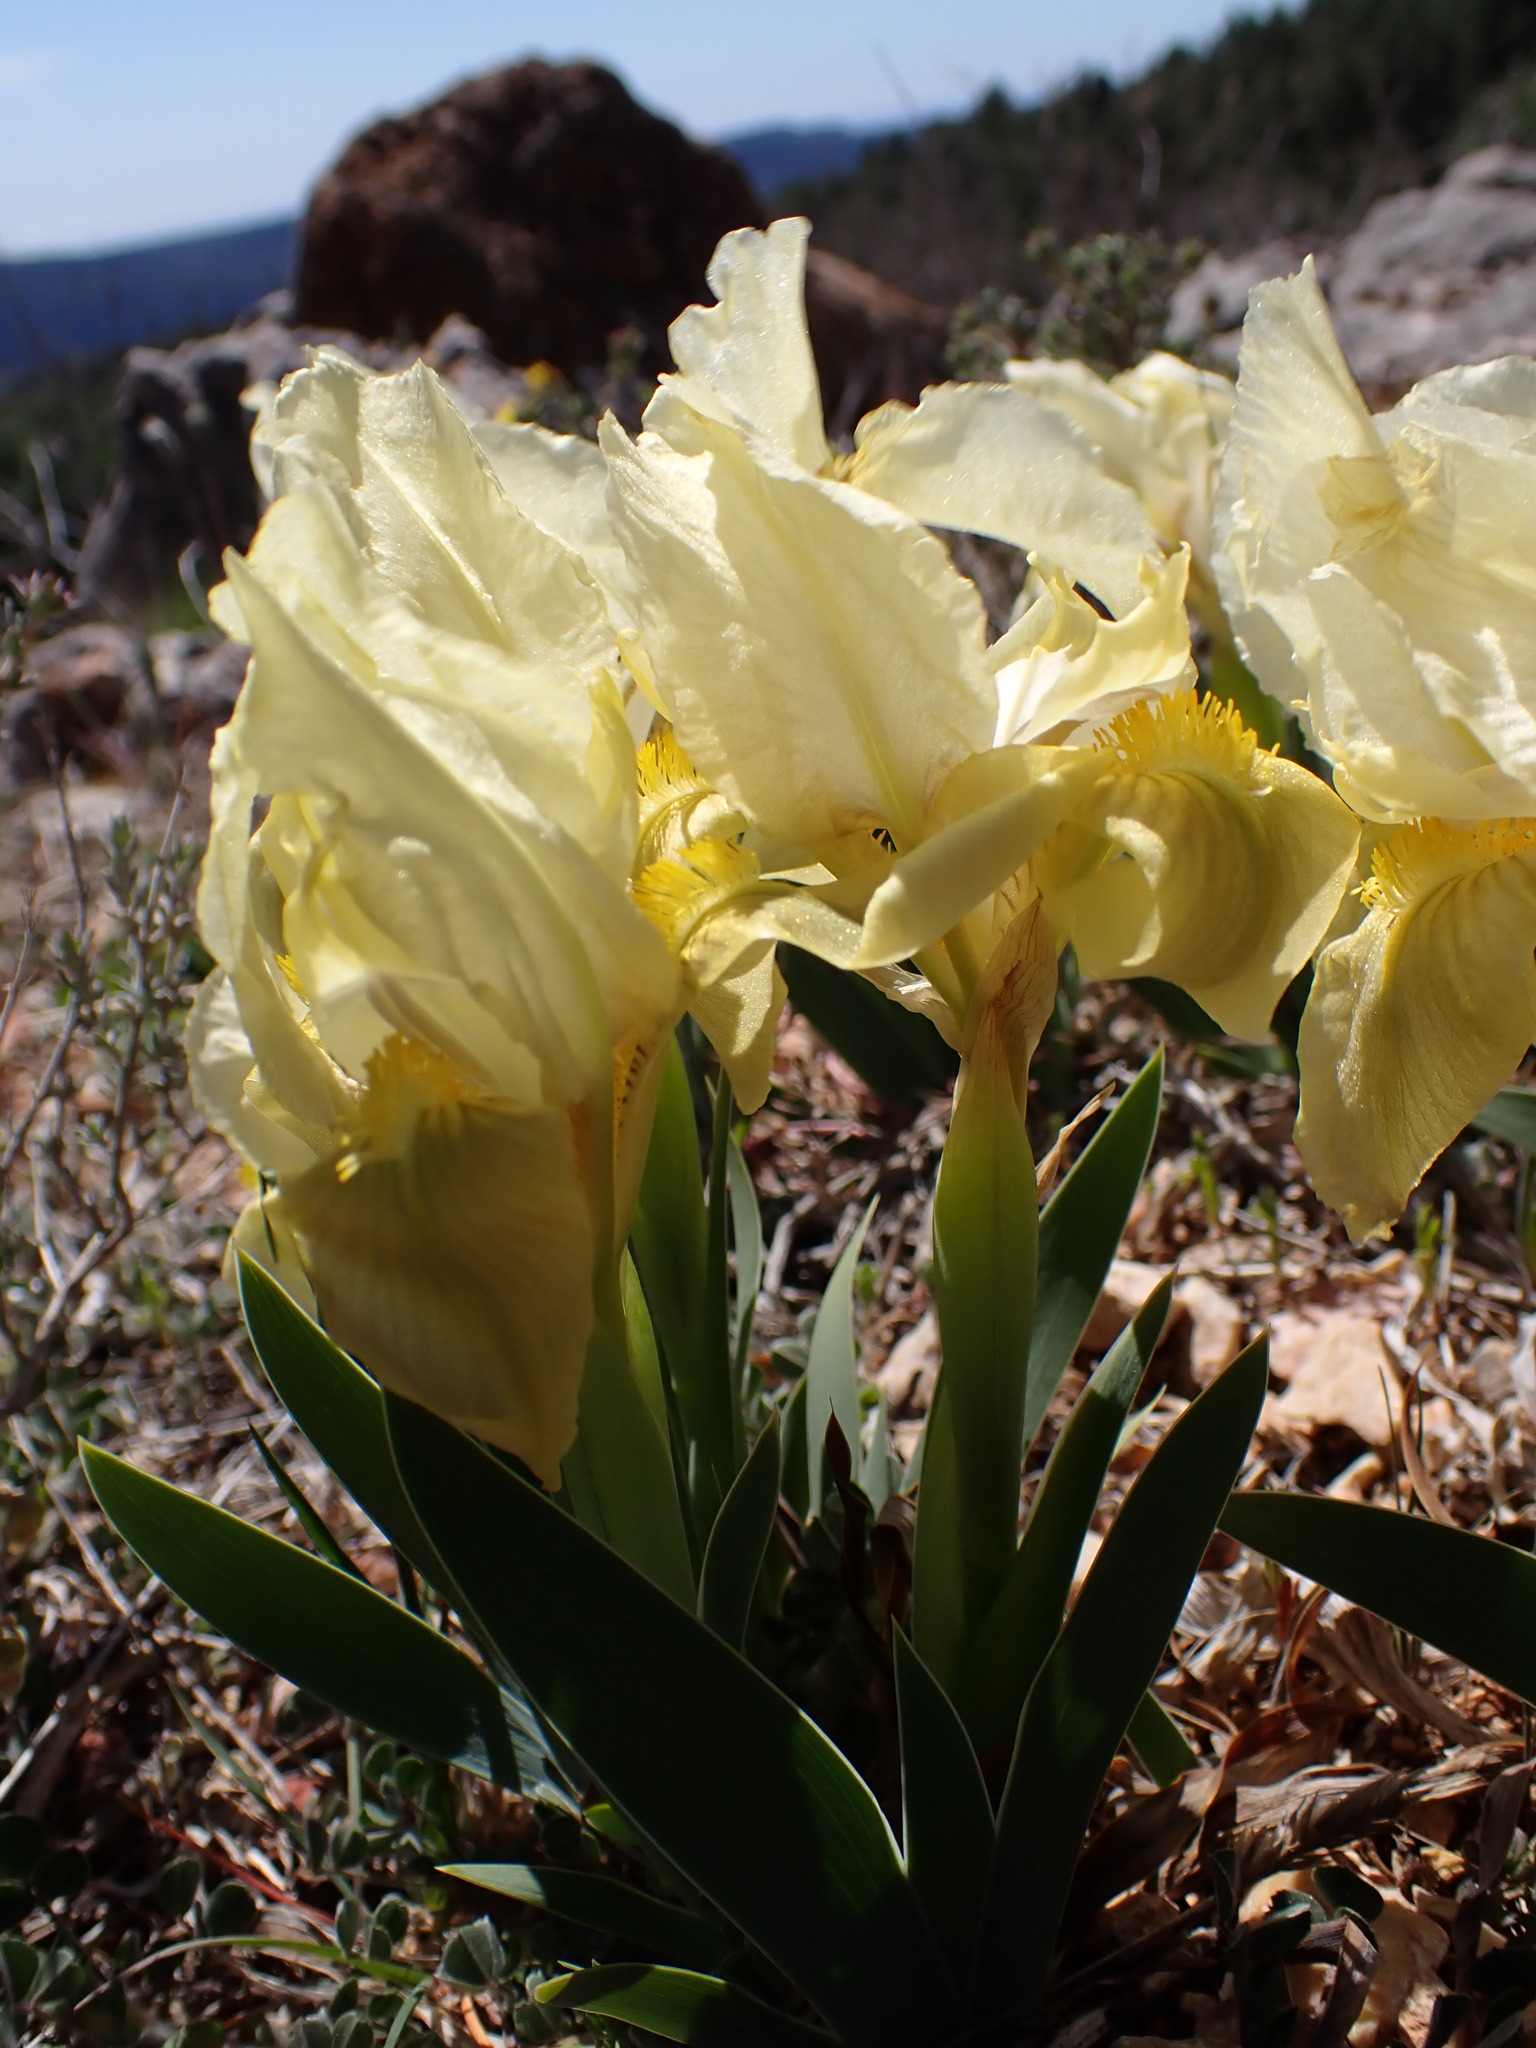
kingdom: Plantae
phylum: Tracheophyta
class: Liliopsida
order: Asparagales
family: Iridaceae
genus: Iris
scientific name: Iris lutescens
